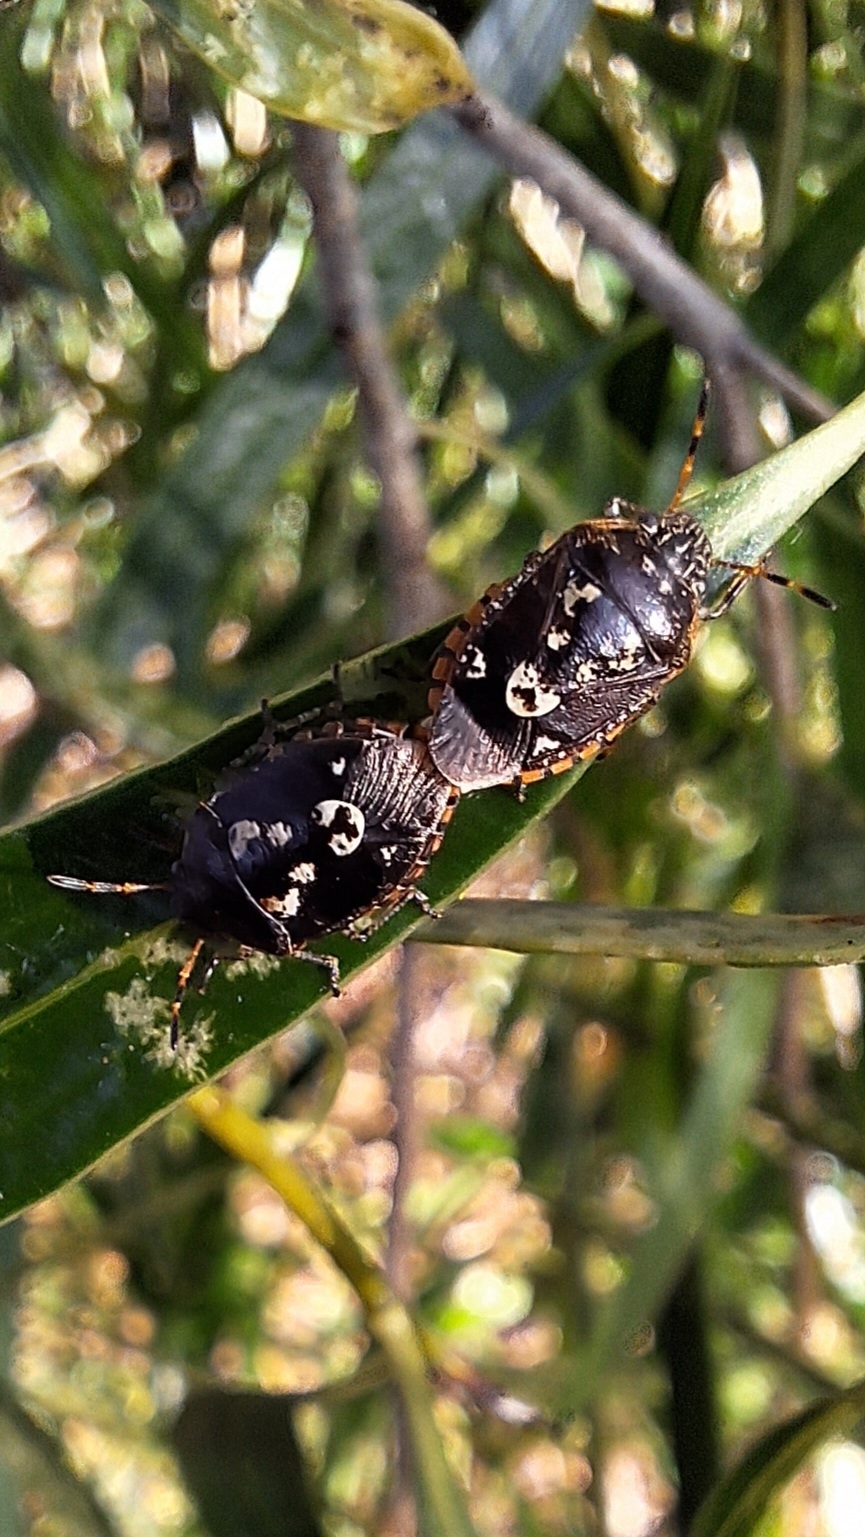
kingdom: Animalia
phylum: Arthropoda
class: Insecta
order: Hemiptera
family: Pentatomidae
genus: Pseudapines
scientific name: Pseudapines
